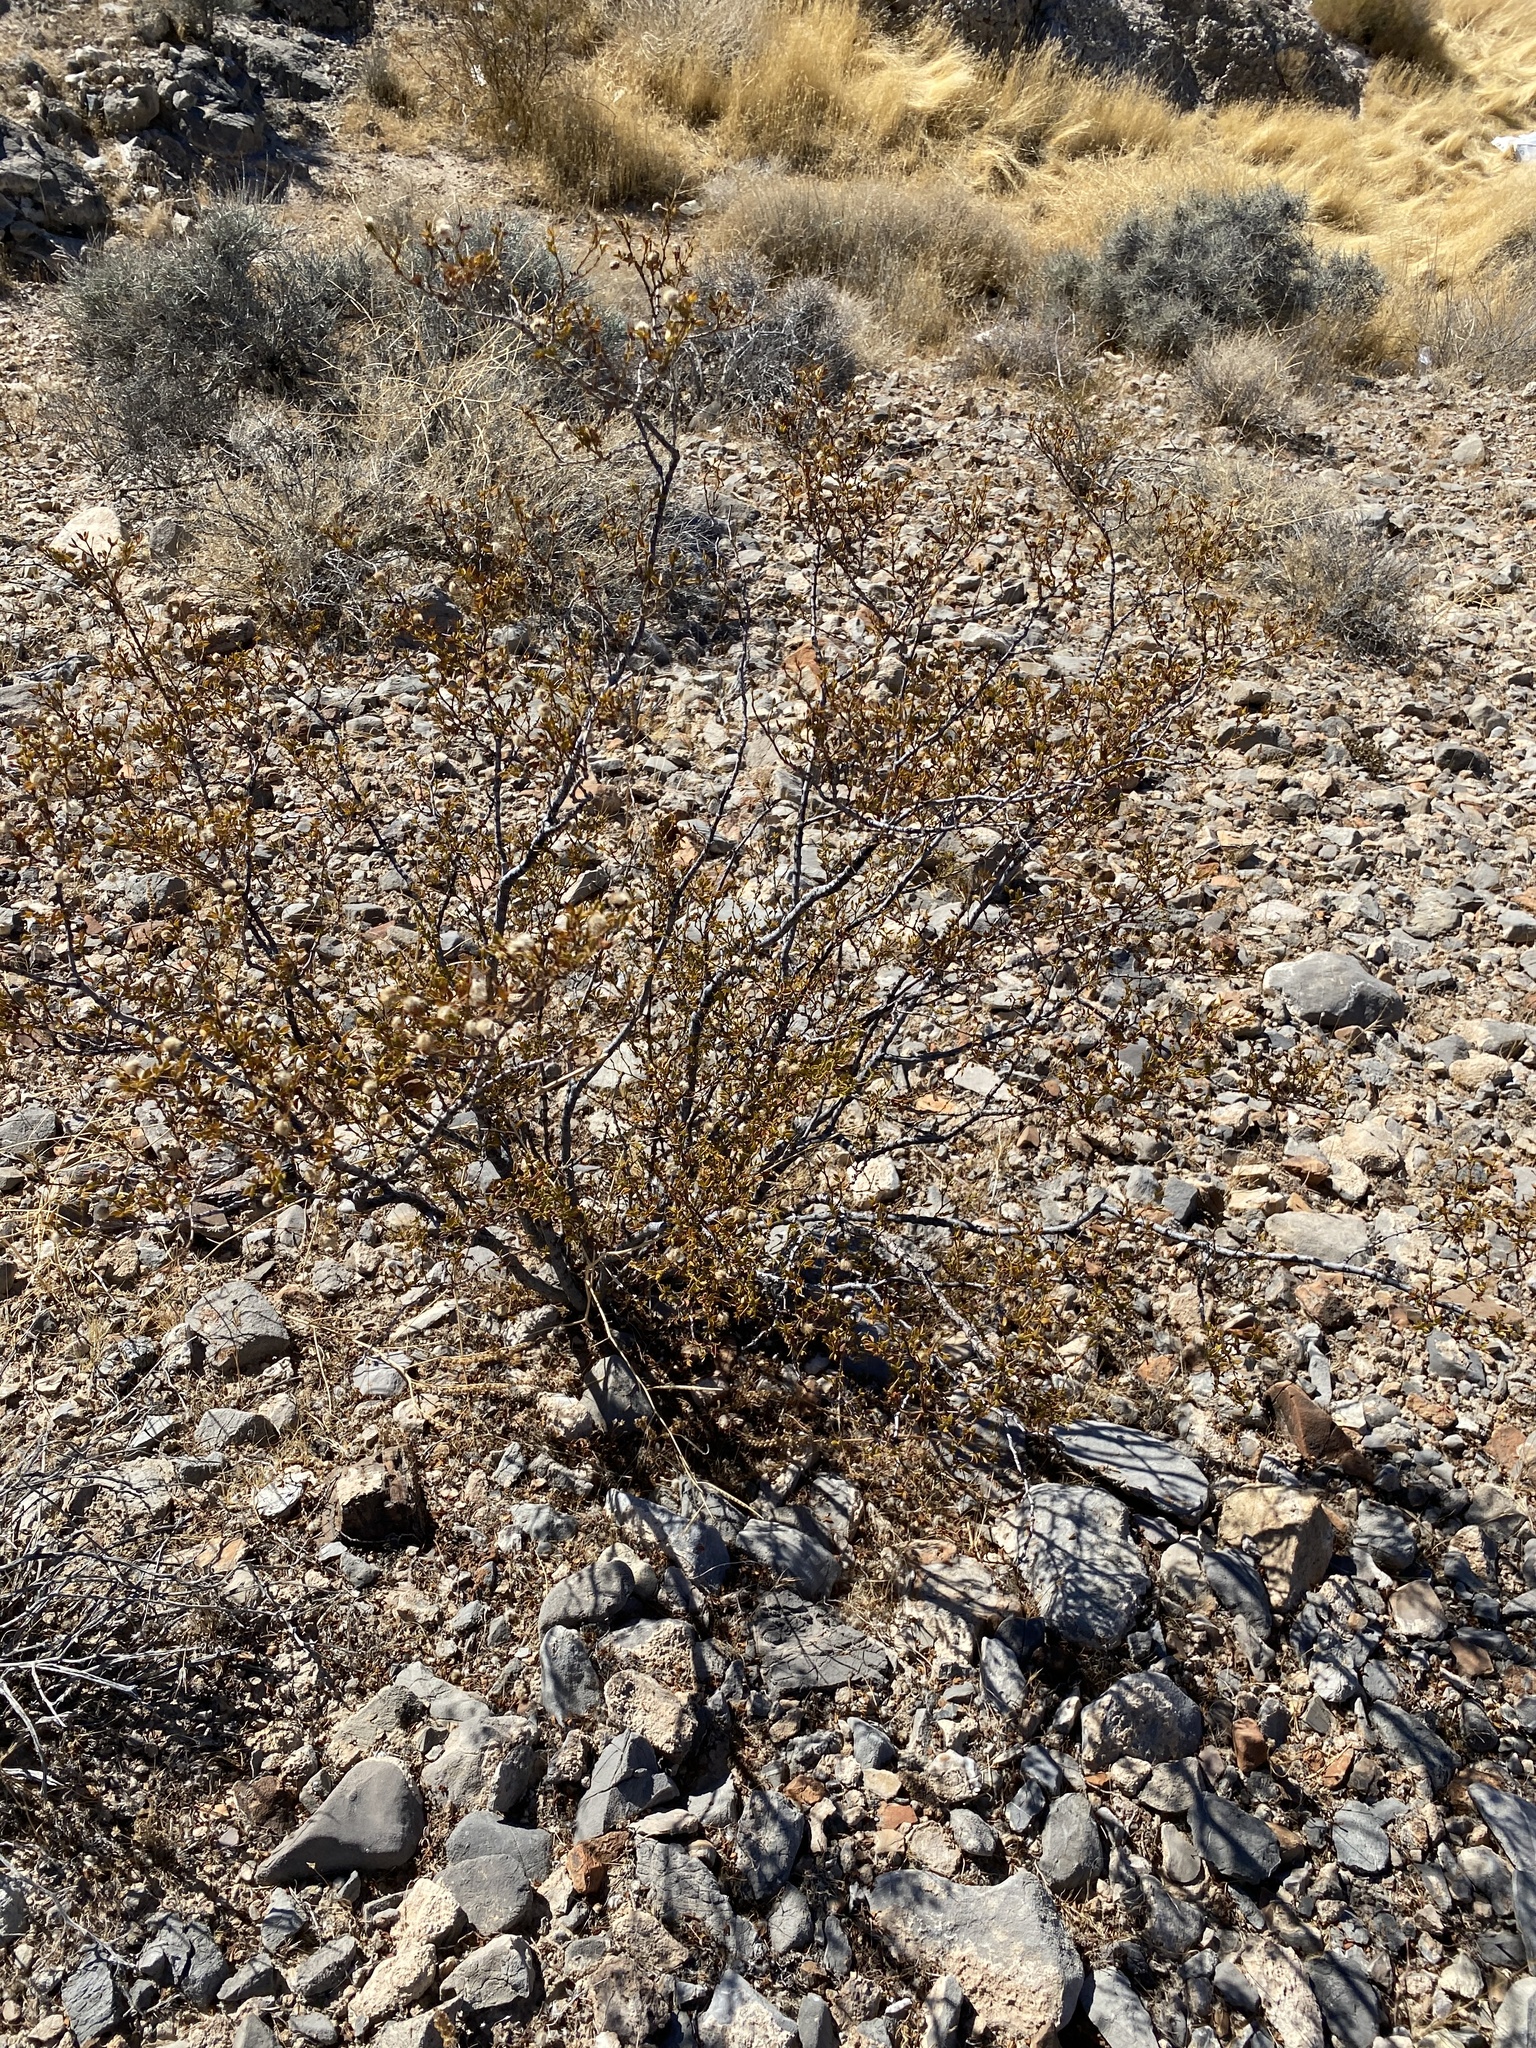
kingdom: Plantae
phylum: Tracheophyta
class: Magnoliopsida
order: Zygophyllales
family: Zygophyllaceae
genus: Larrea
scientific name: Larrea tridentata
